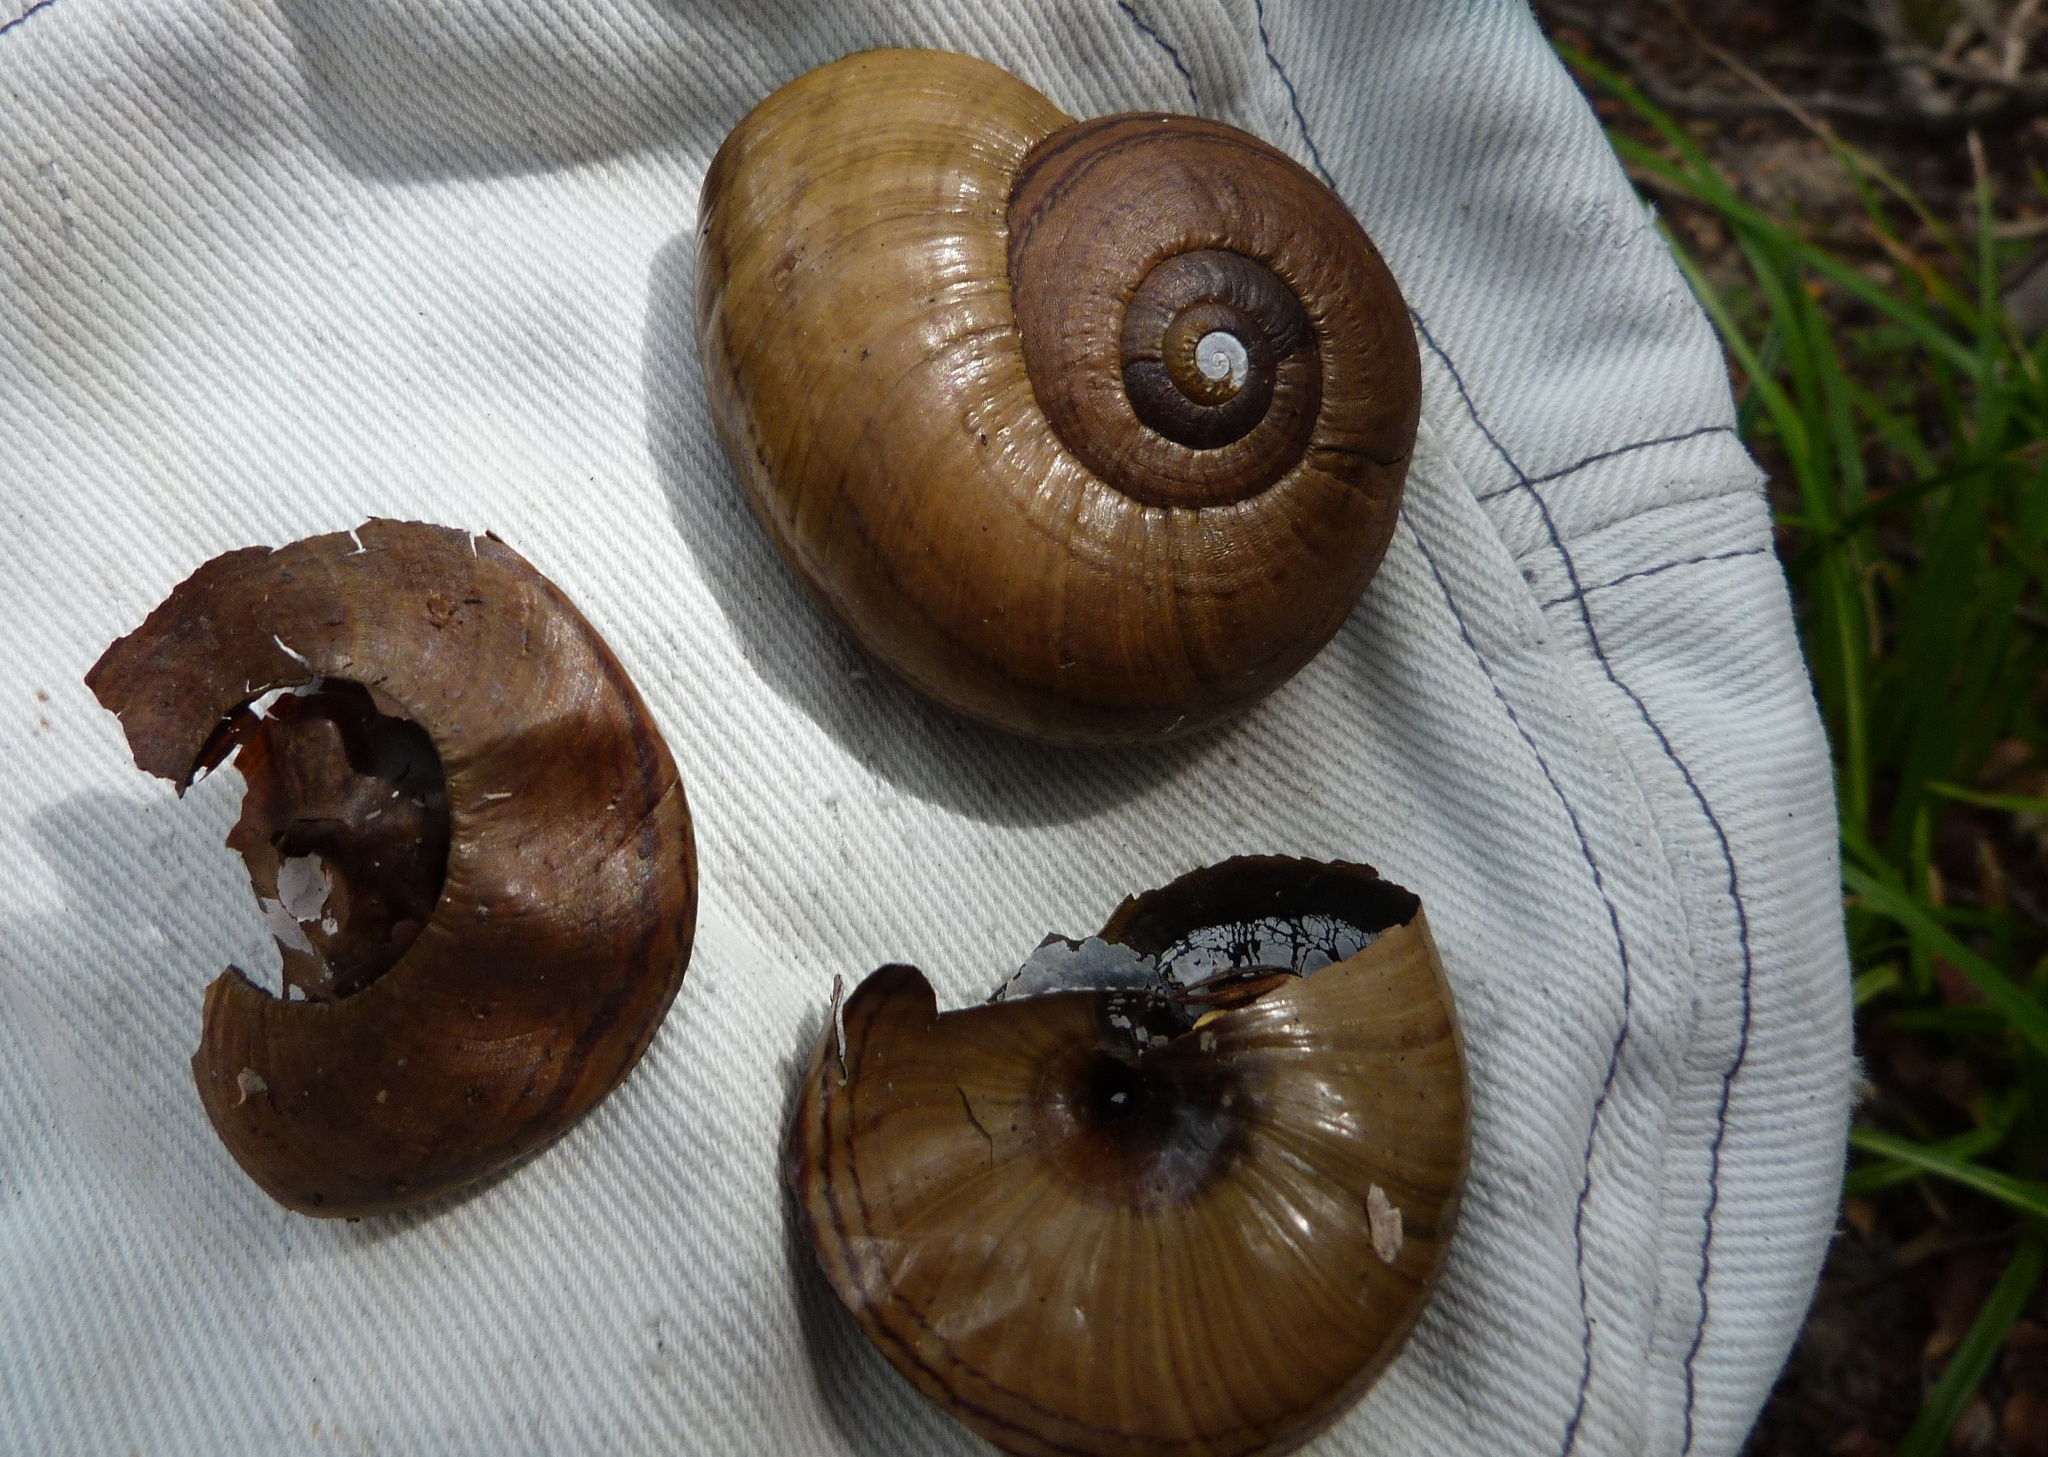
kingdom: Animalia
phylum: Mollusca
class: Gastropoda
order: Stylommatophora
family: Rhytididae
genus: Powelliphanta
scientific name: Powelliphanta hochstetteri
